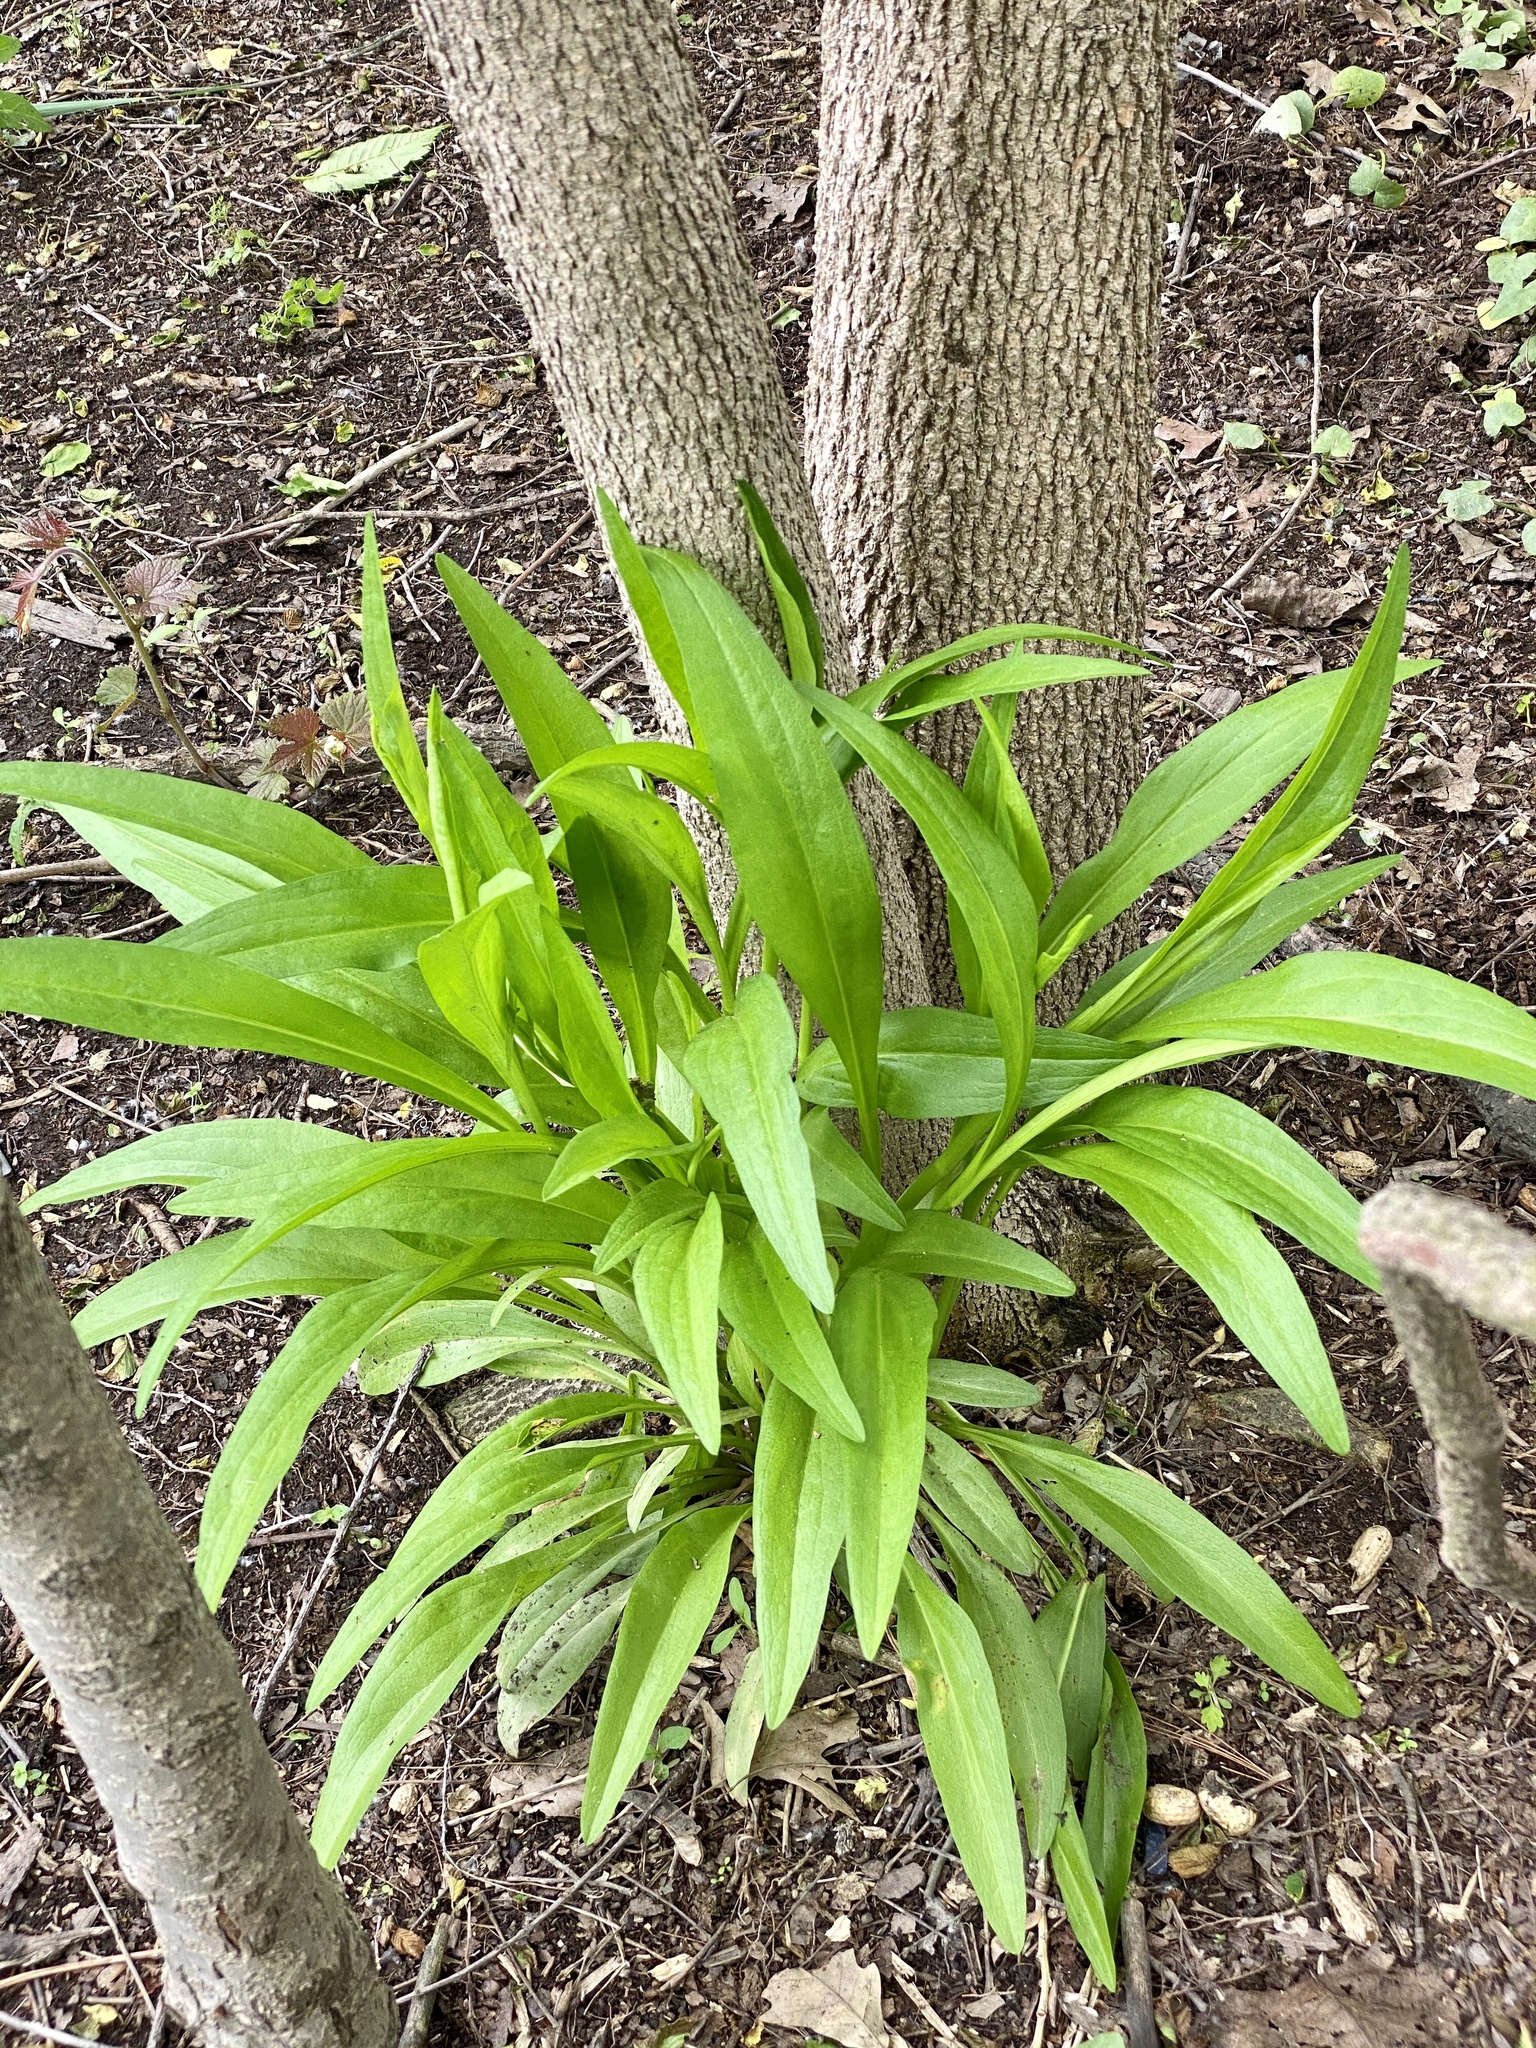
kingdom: Plantae
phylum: Tracheophyta
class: Magnoliopsida
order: Asterales
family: Asteraceae
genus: Solidago
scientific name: Solidago sempervirens
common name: Salt-marsh goldenrod
